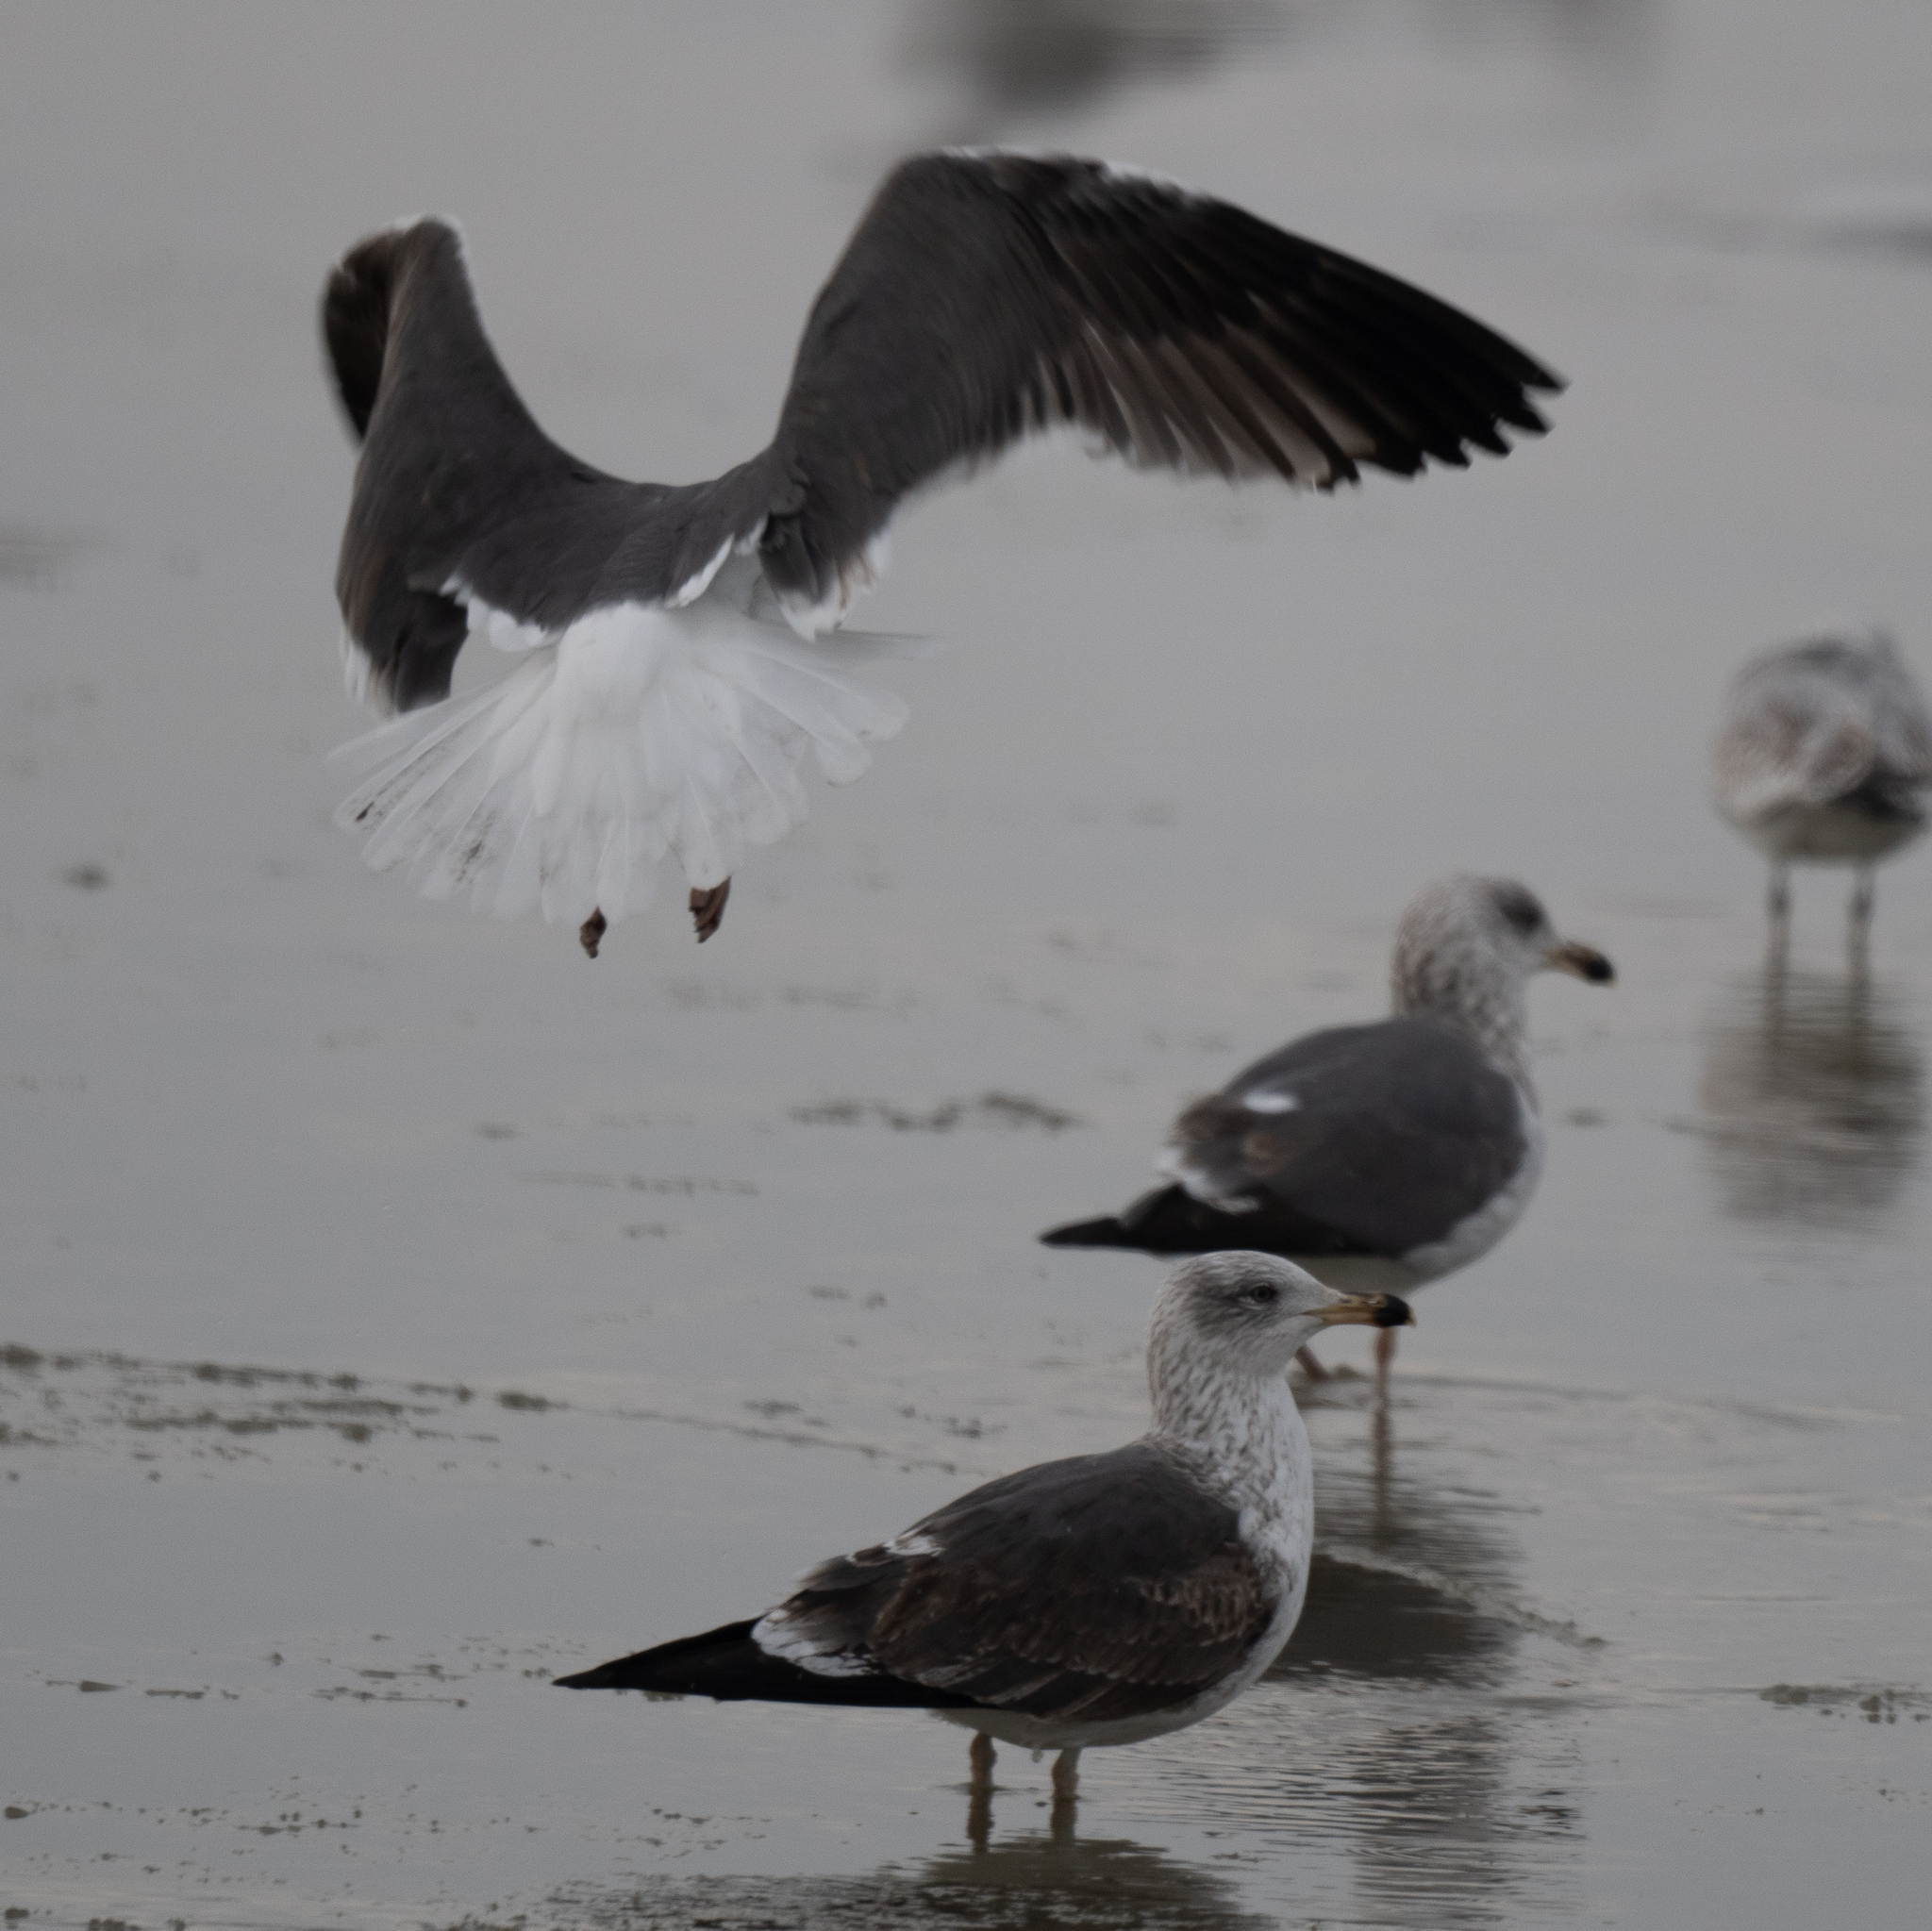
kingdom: Animalia
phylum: Chordata
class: Aves
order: Charadriiformes
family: Laridae
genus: Larus
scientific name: Larus fuscus
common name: Lesser black-backed gull
